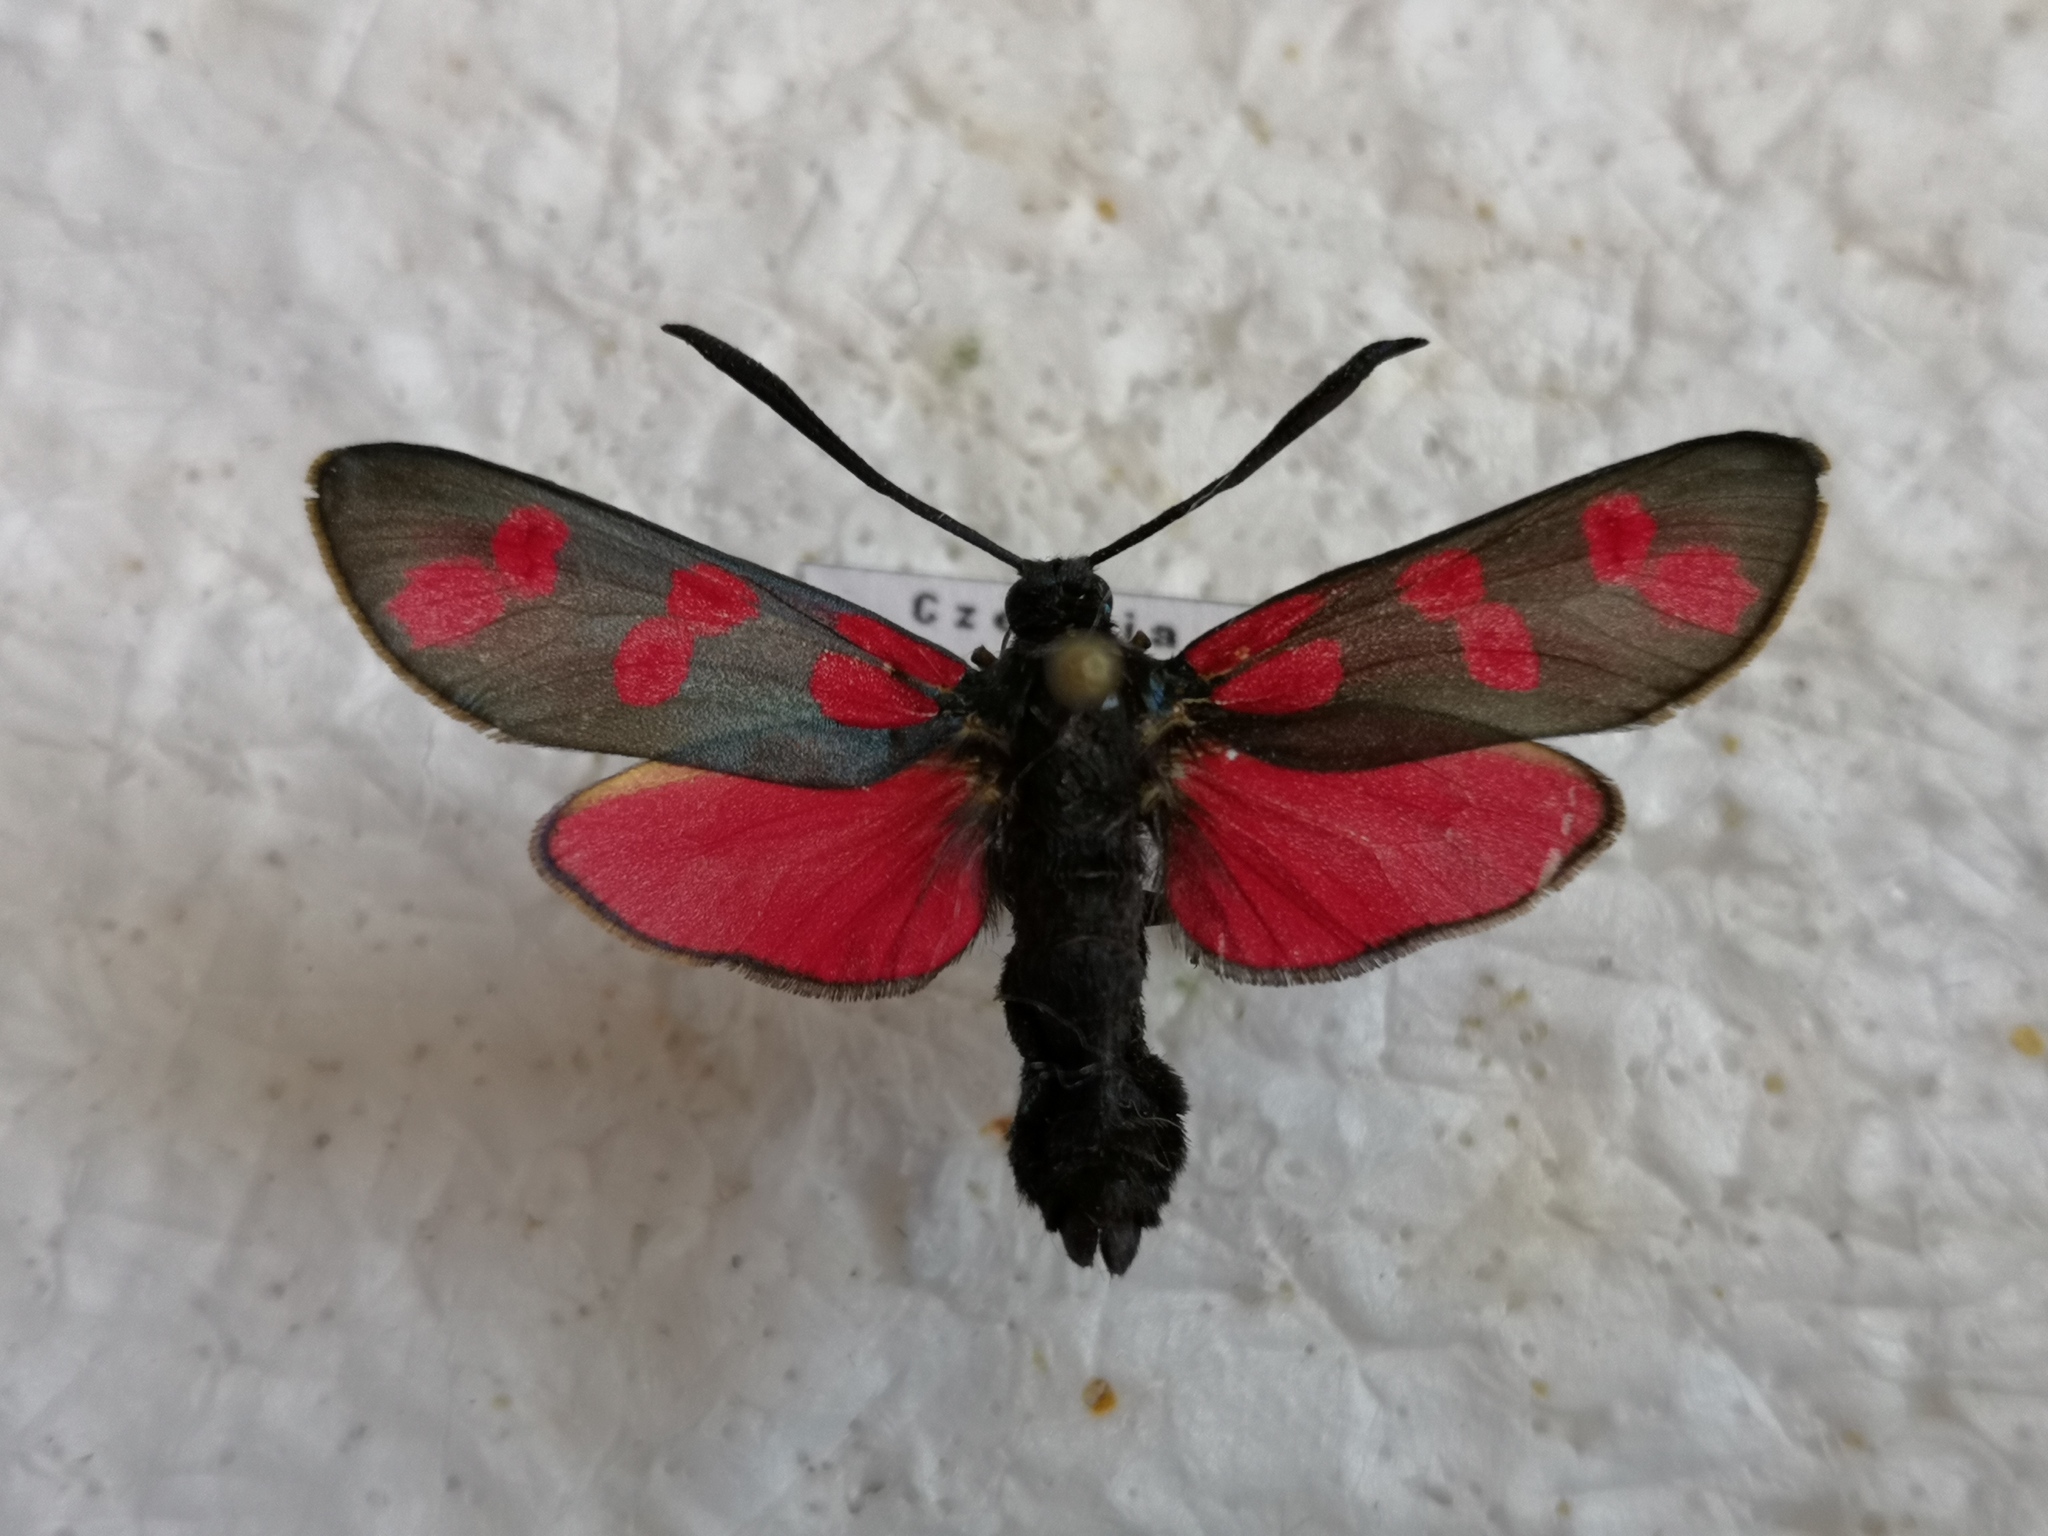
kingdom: Animalia
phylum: Arthropoda
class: Insecta
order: Lepidoptera
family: Zygaenidae
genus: Zygaena
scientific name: Zygaena filipendulae
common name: Six-spot burnet
